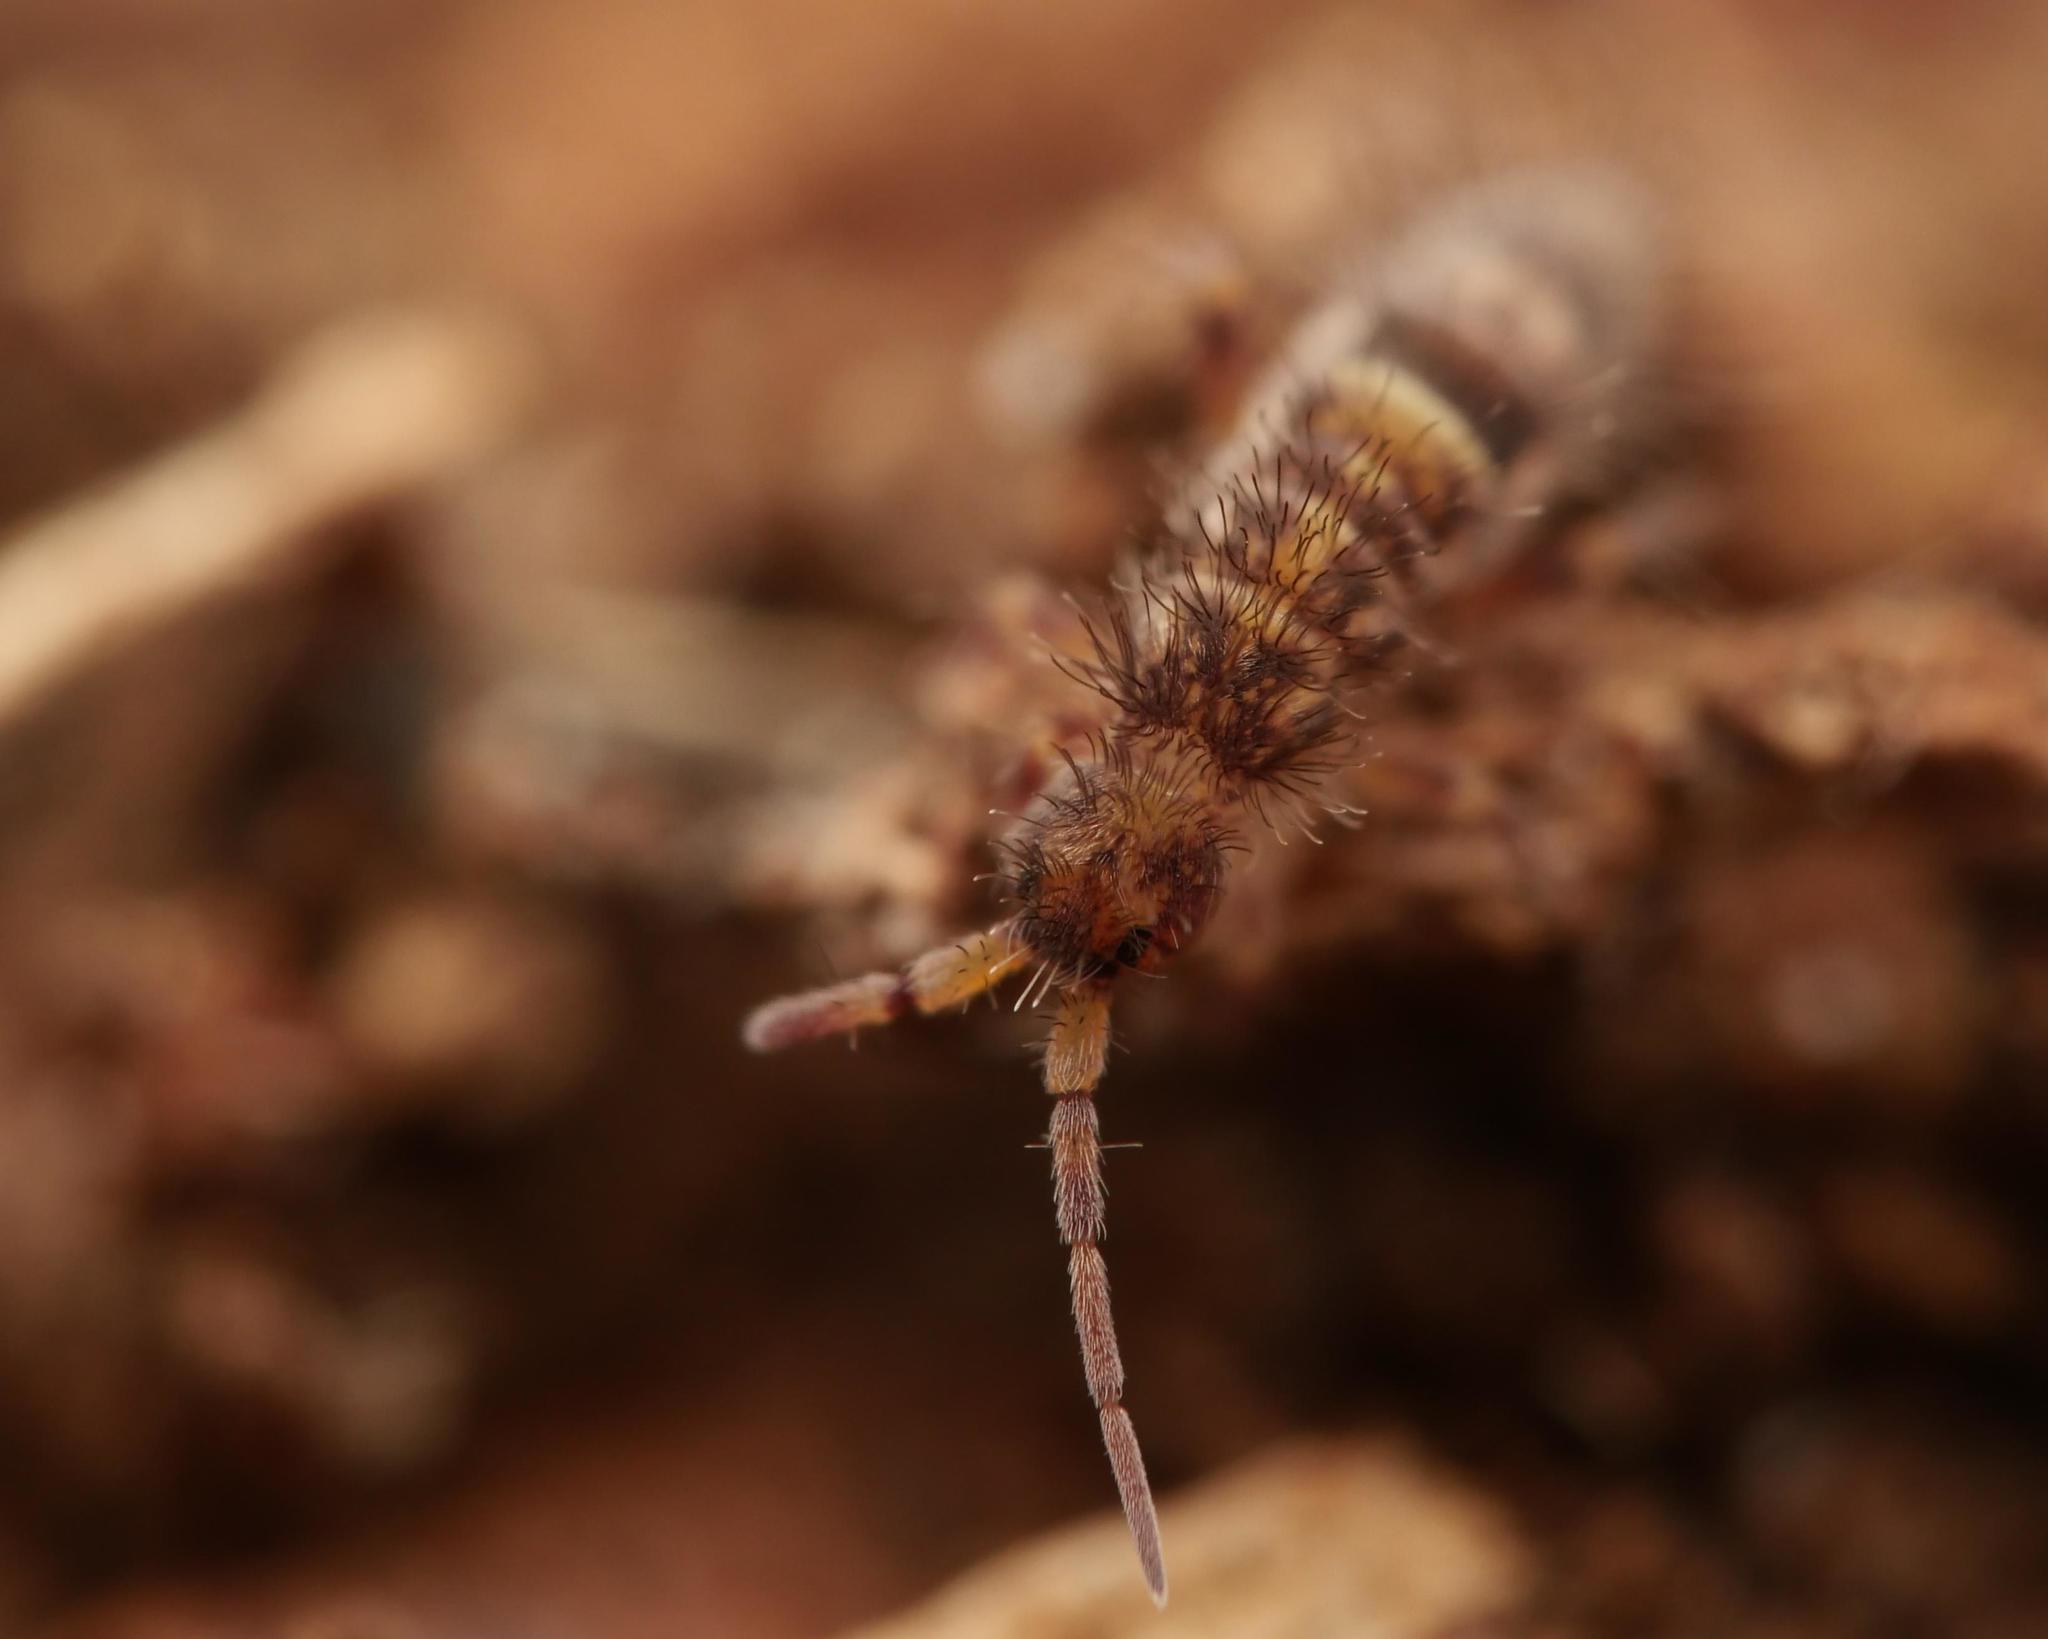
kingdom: Animalia
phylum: Arthropoda
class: Collembola
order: Entomobryomorpha
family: Orchesellidae
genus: Orchesella
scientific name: Orchesella cincta
